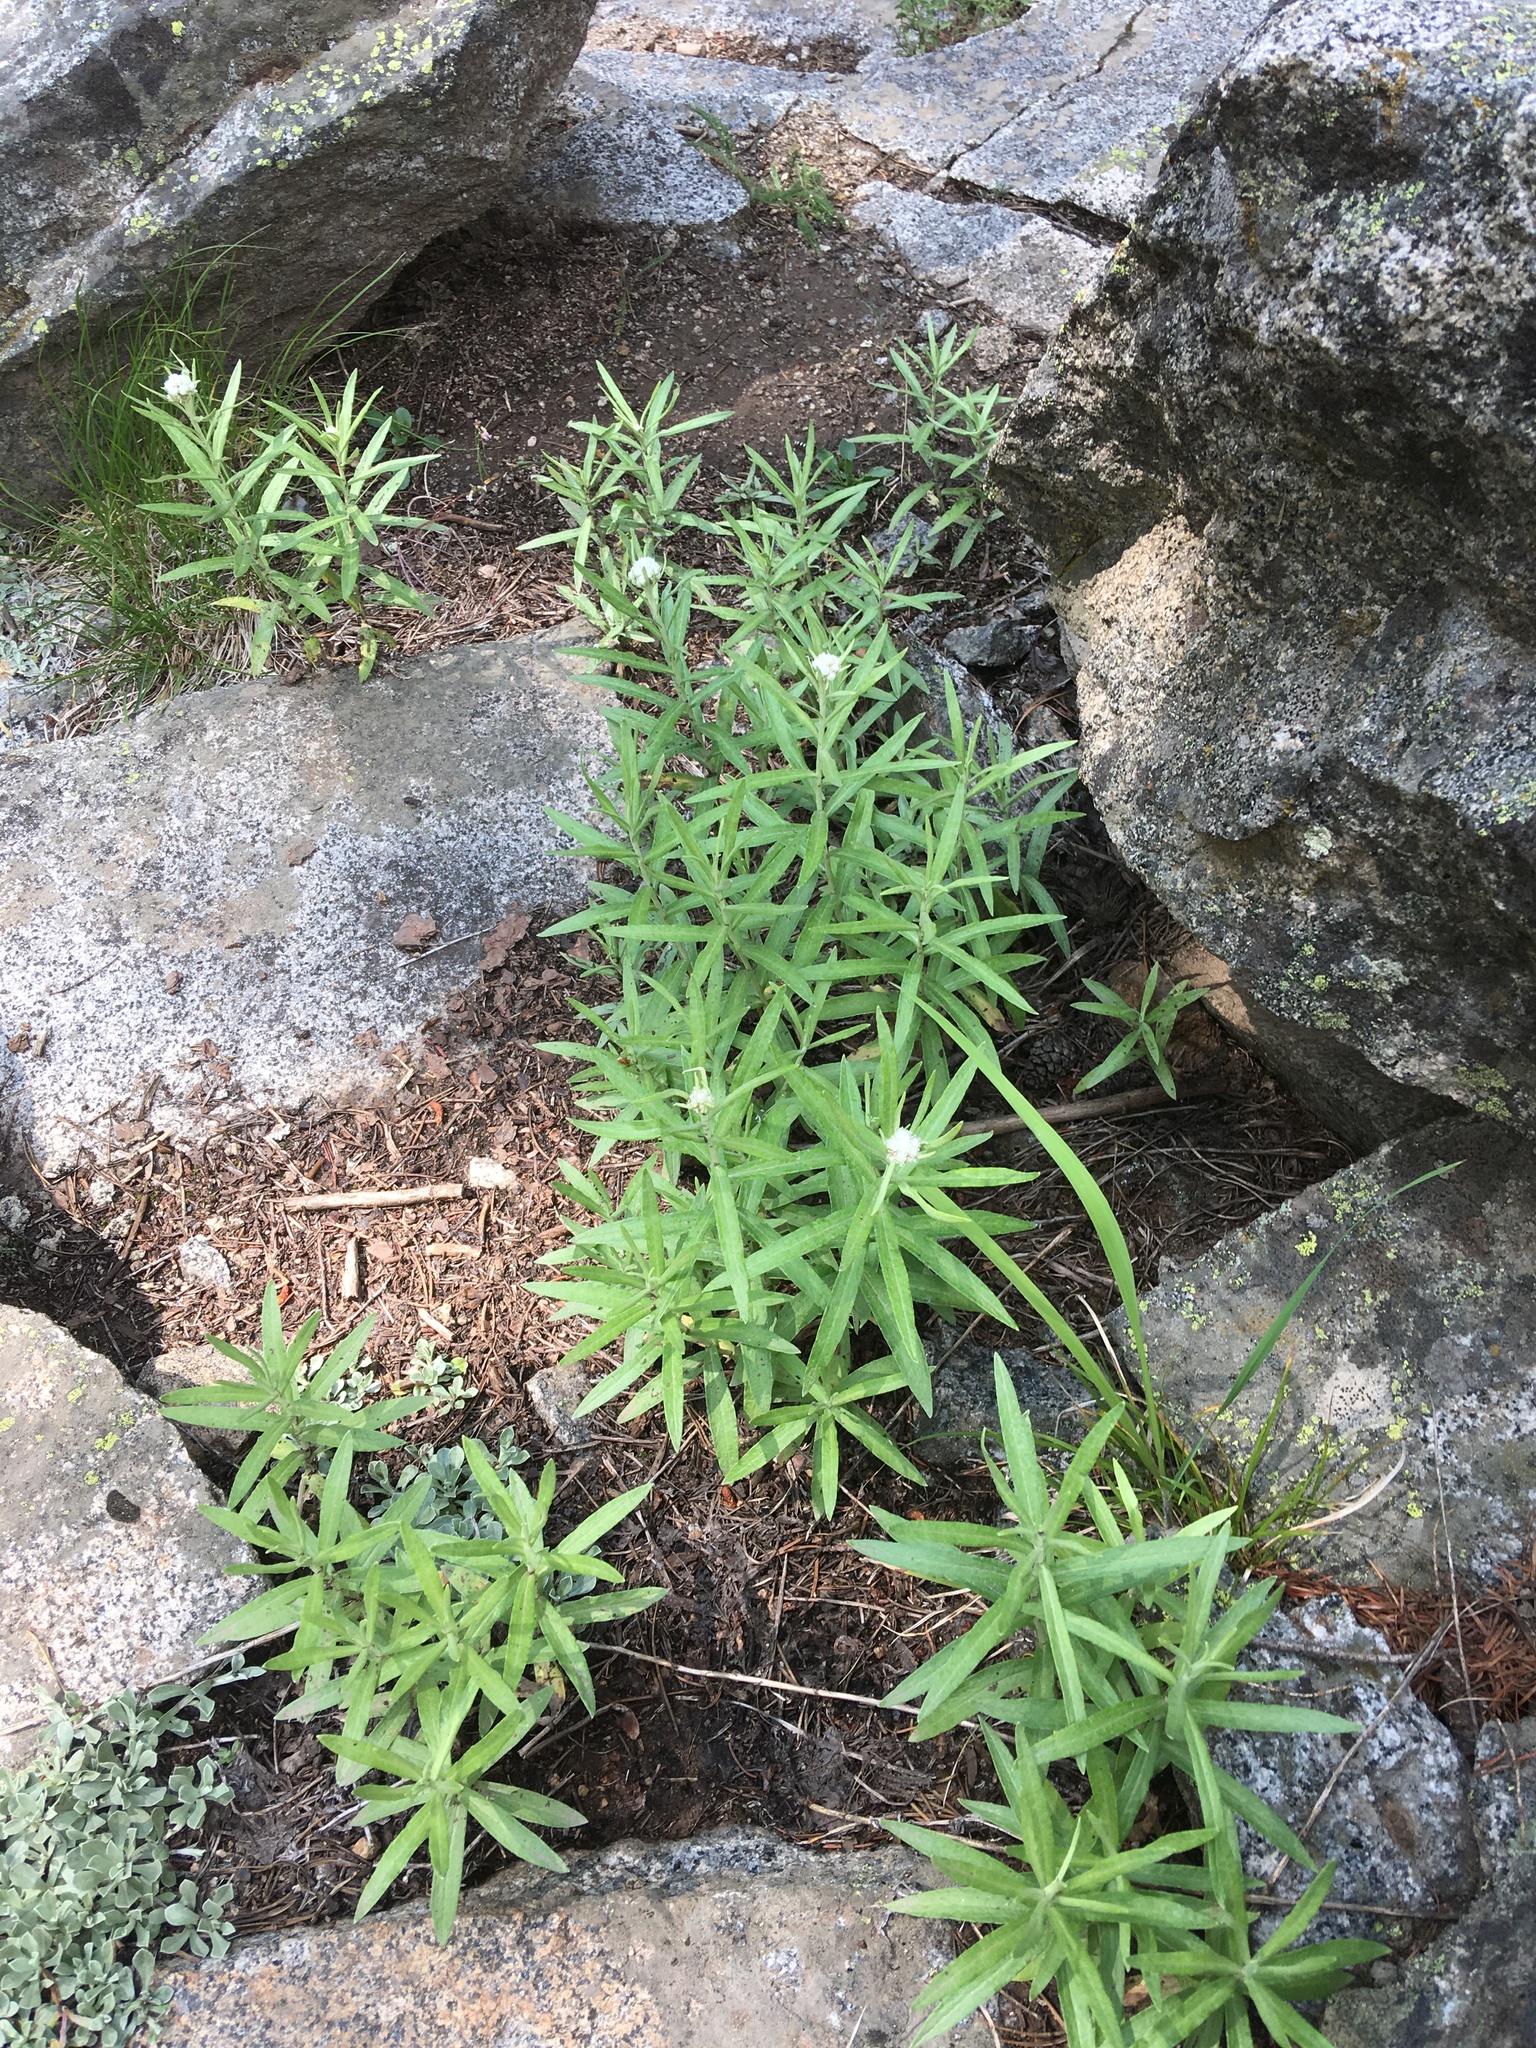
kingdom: Plantae
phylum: Tracheophyta
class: Magnoliopsida
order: Asterales
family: Asteraceae
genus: Anaphalis
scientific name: Anaphalis margaritacea
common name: Pearly everlasting
